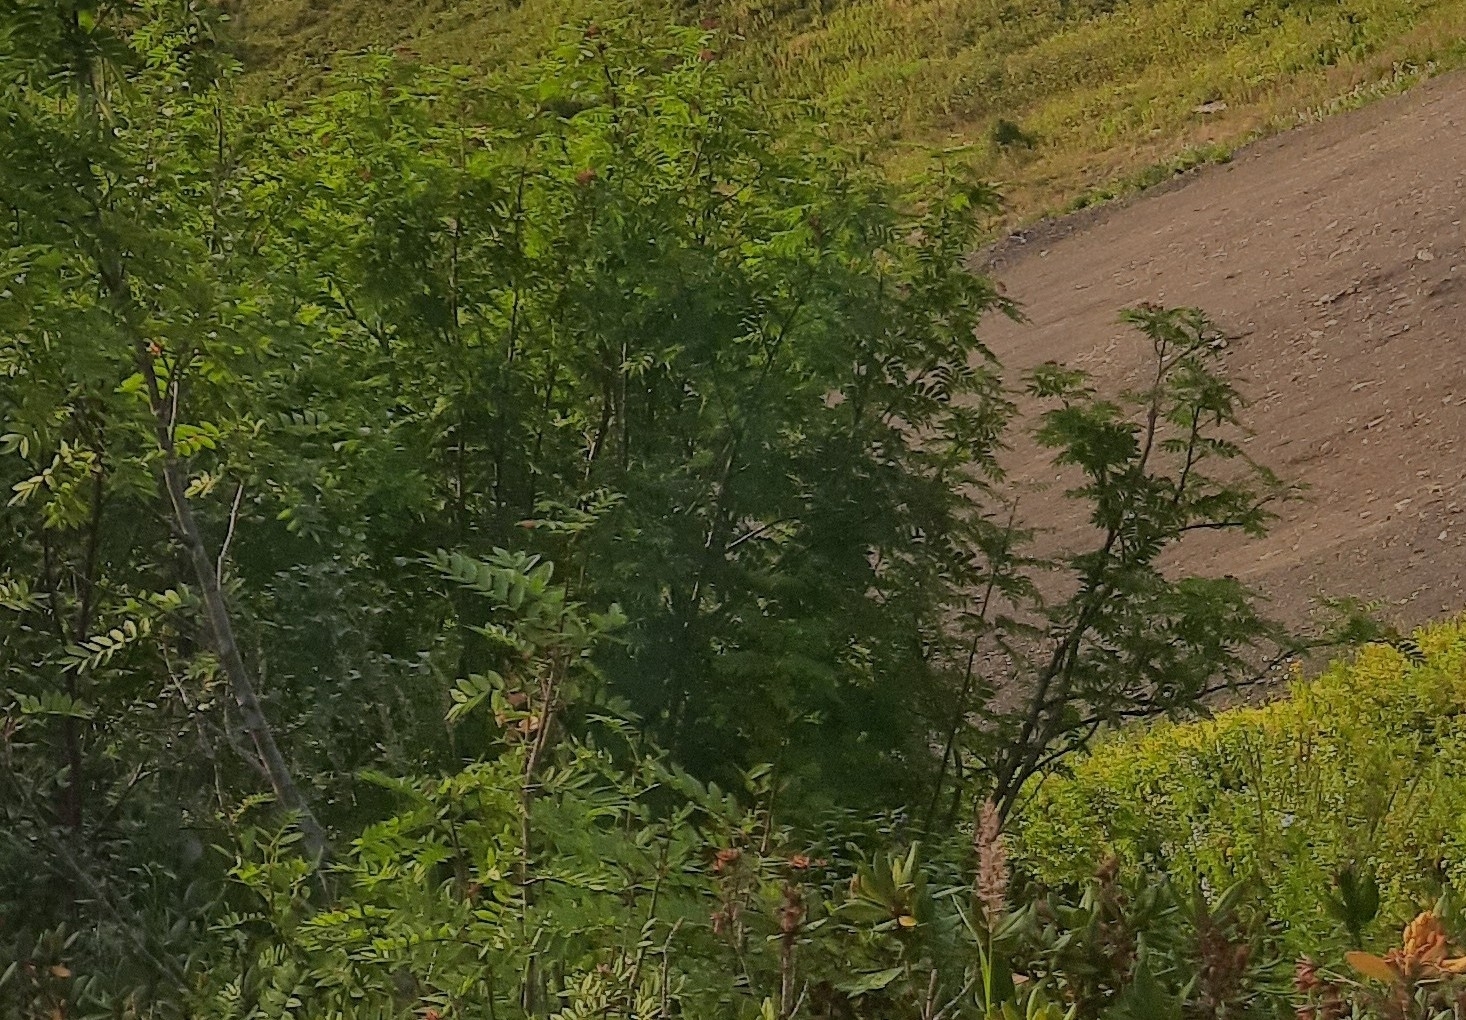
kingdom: Plantae
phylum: Tracheophyta
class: Magnoliopsida
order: Rosales
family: Rosaceae
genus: Sorbus
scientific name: Sorbus aucuparia
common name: Rowan
